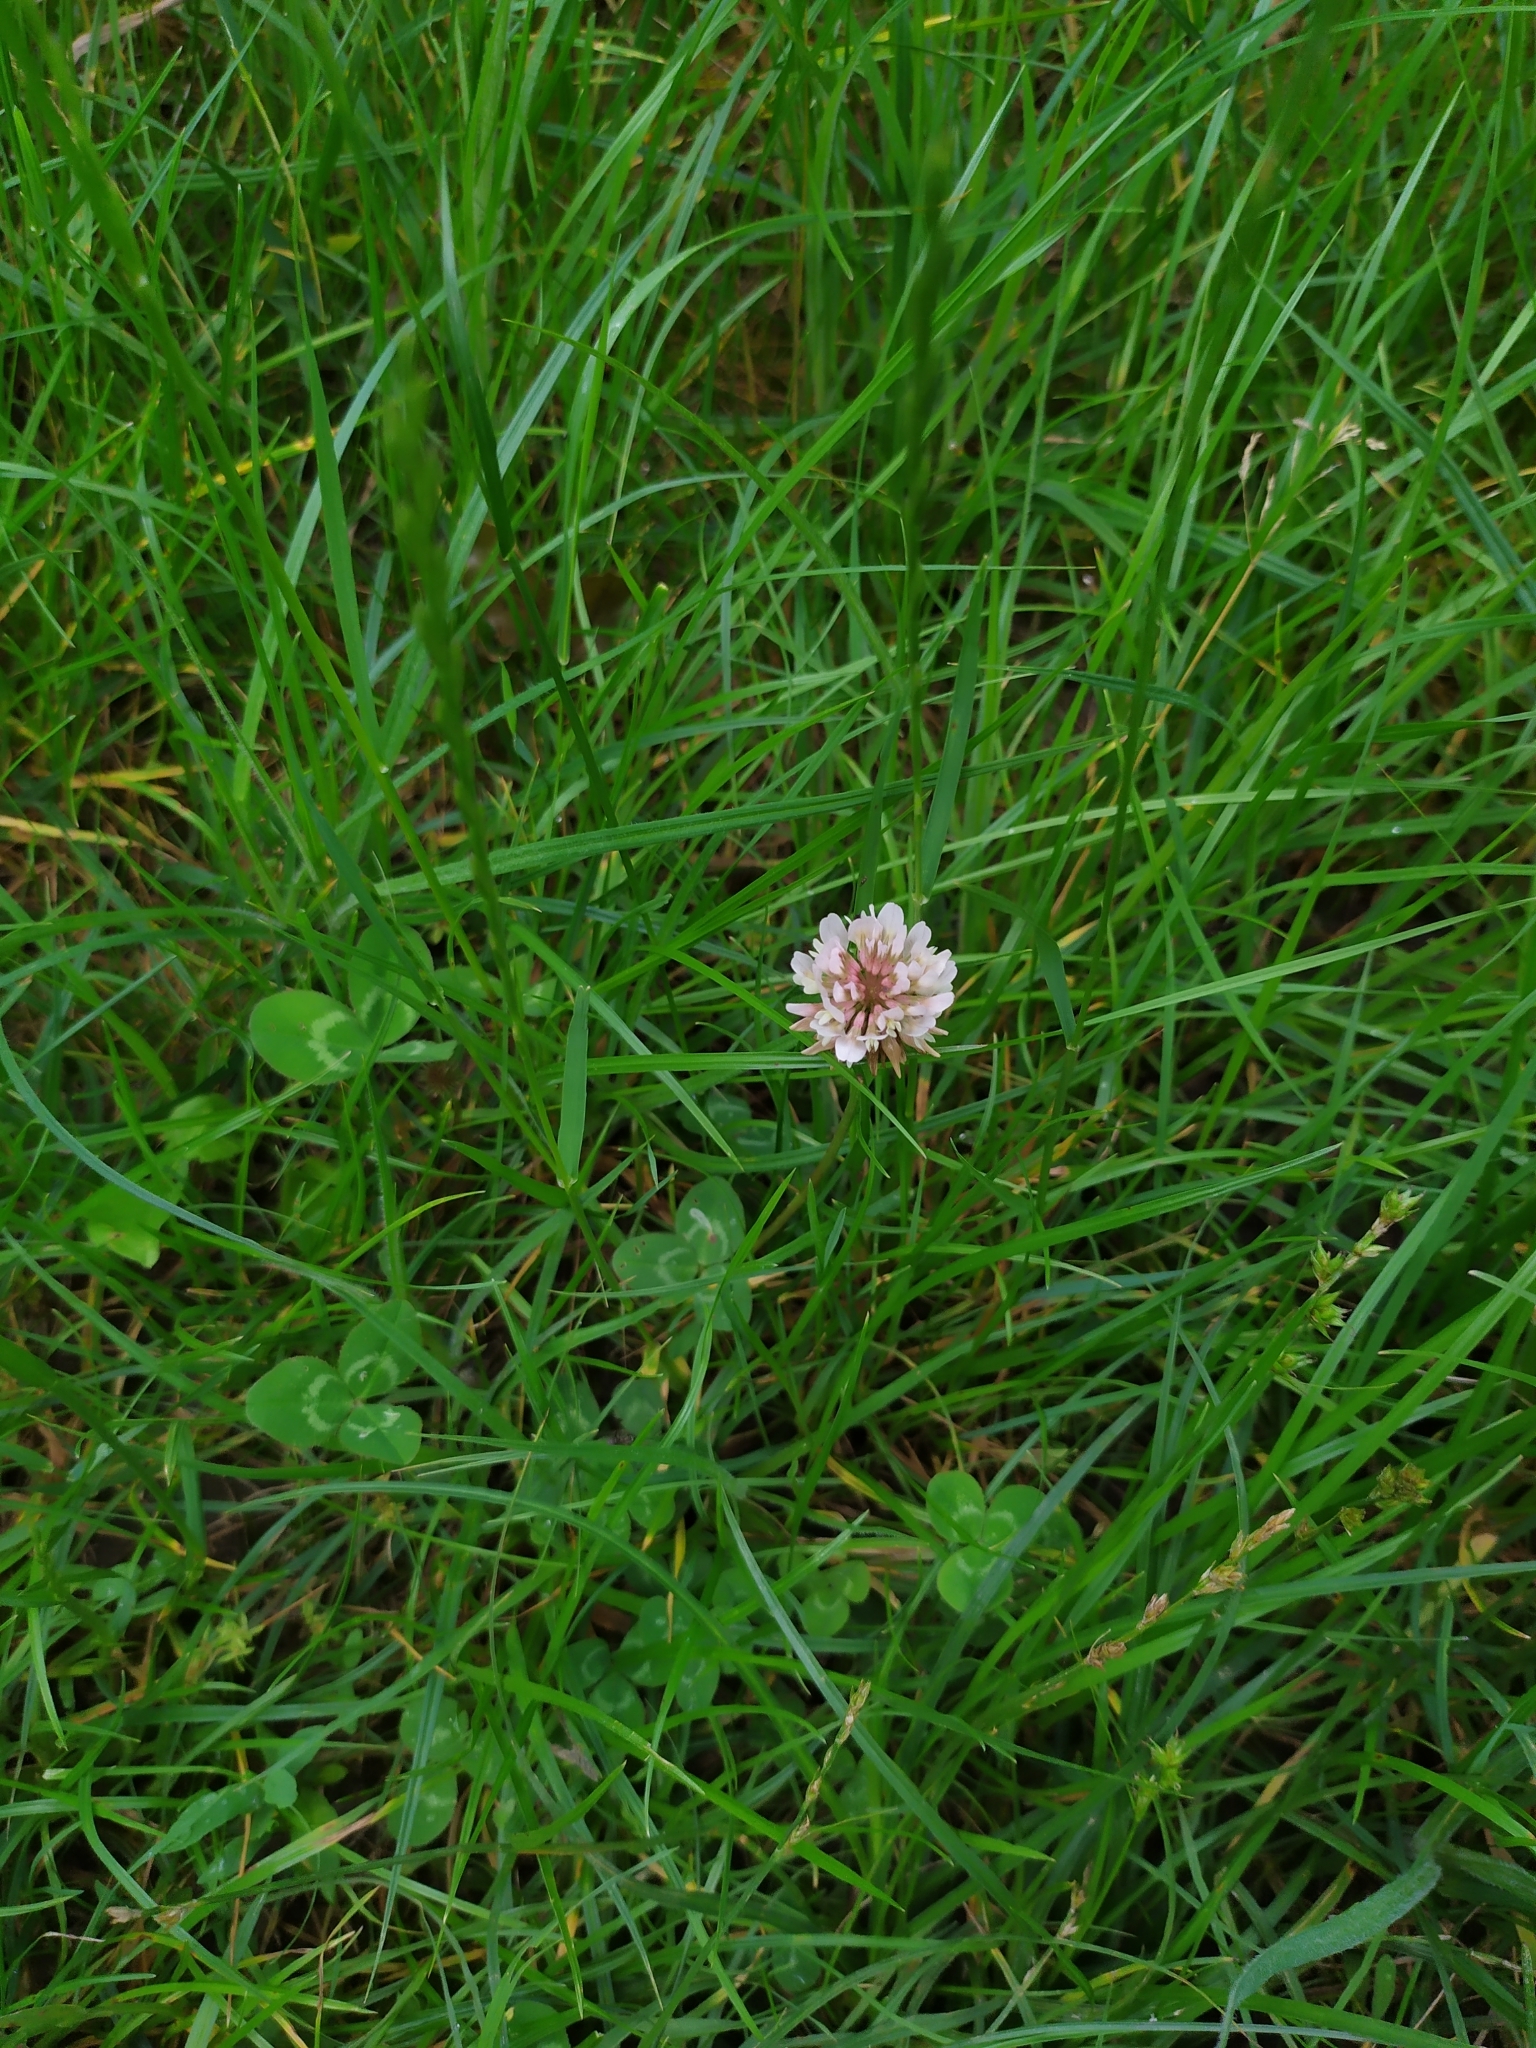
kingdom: Plantae
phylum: Tracheophyta
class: Magnoliopsida
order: Fabales
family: Fabaceae
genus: Trifolium
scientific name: Trifolium repens
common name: White clover
